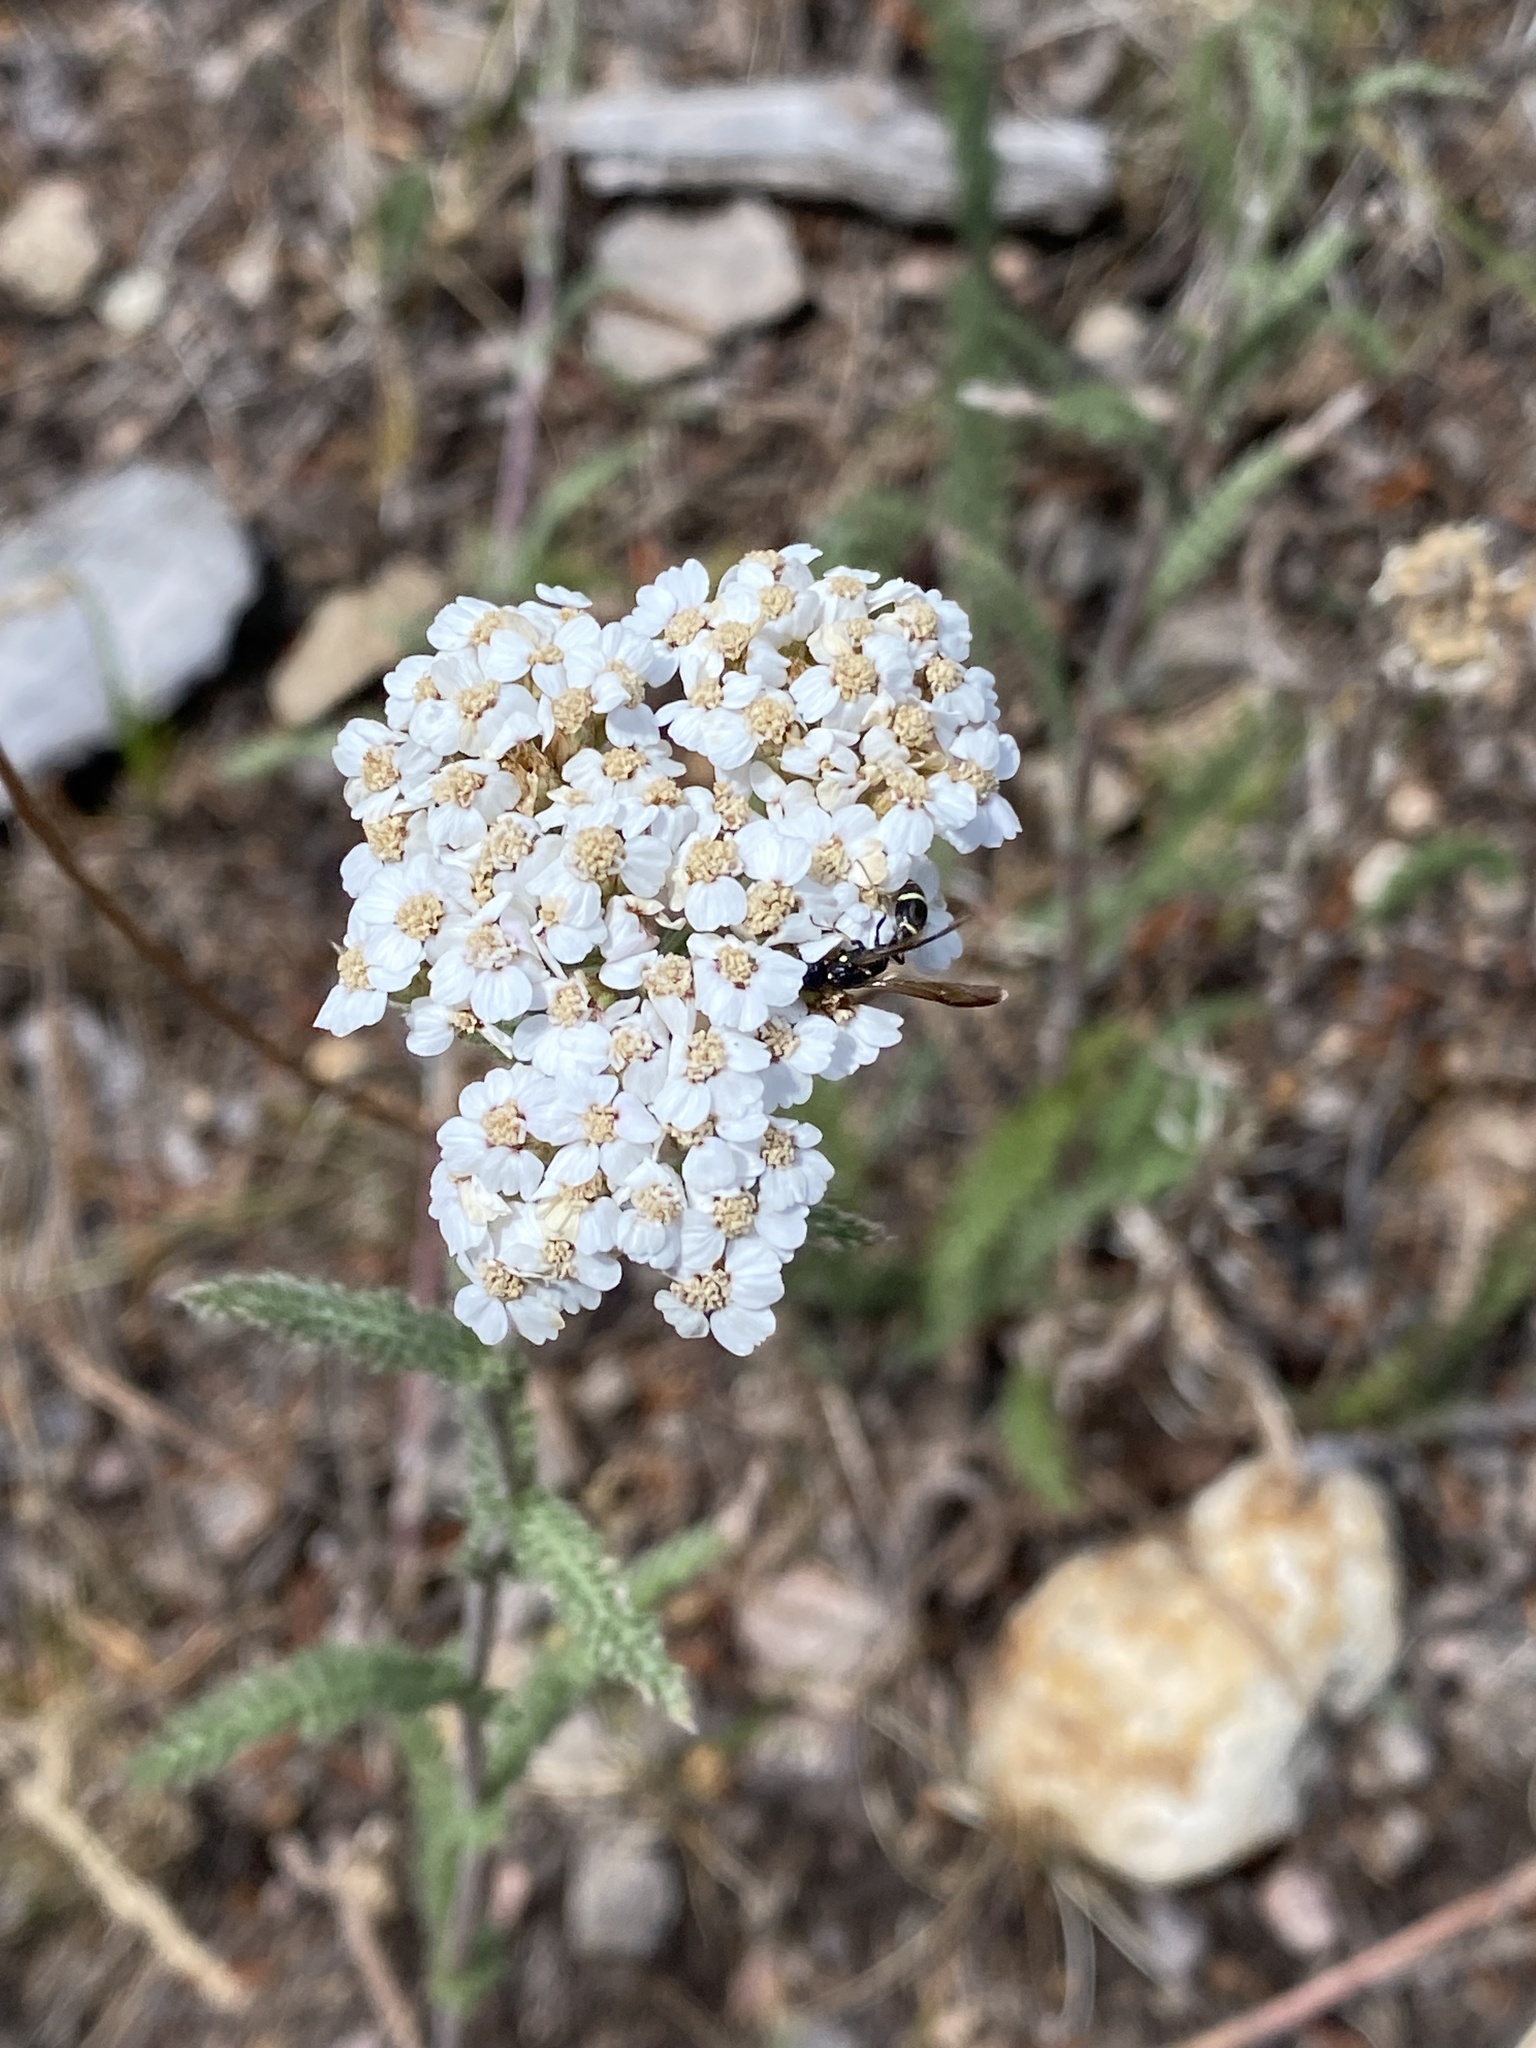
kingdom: Plantae
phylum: Tracheophyta
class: Magnoliopsida
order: Asterales
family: Asteraceae
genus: Achillea
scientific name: Achillea millefolium
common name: Yarrow
